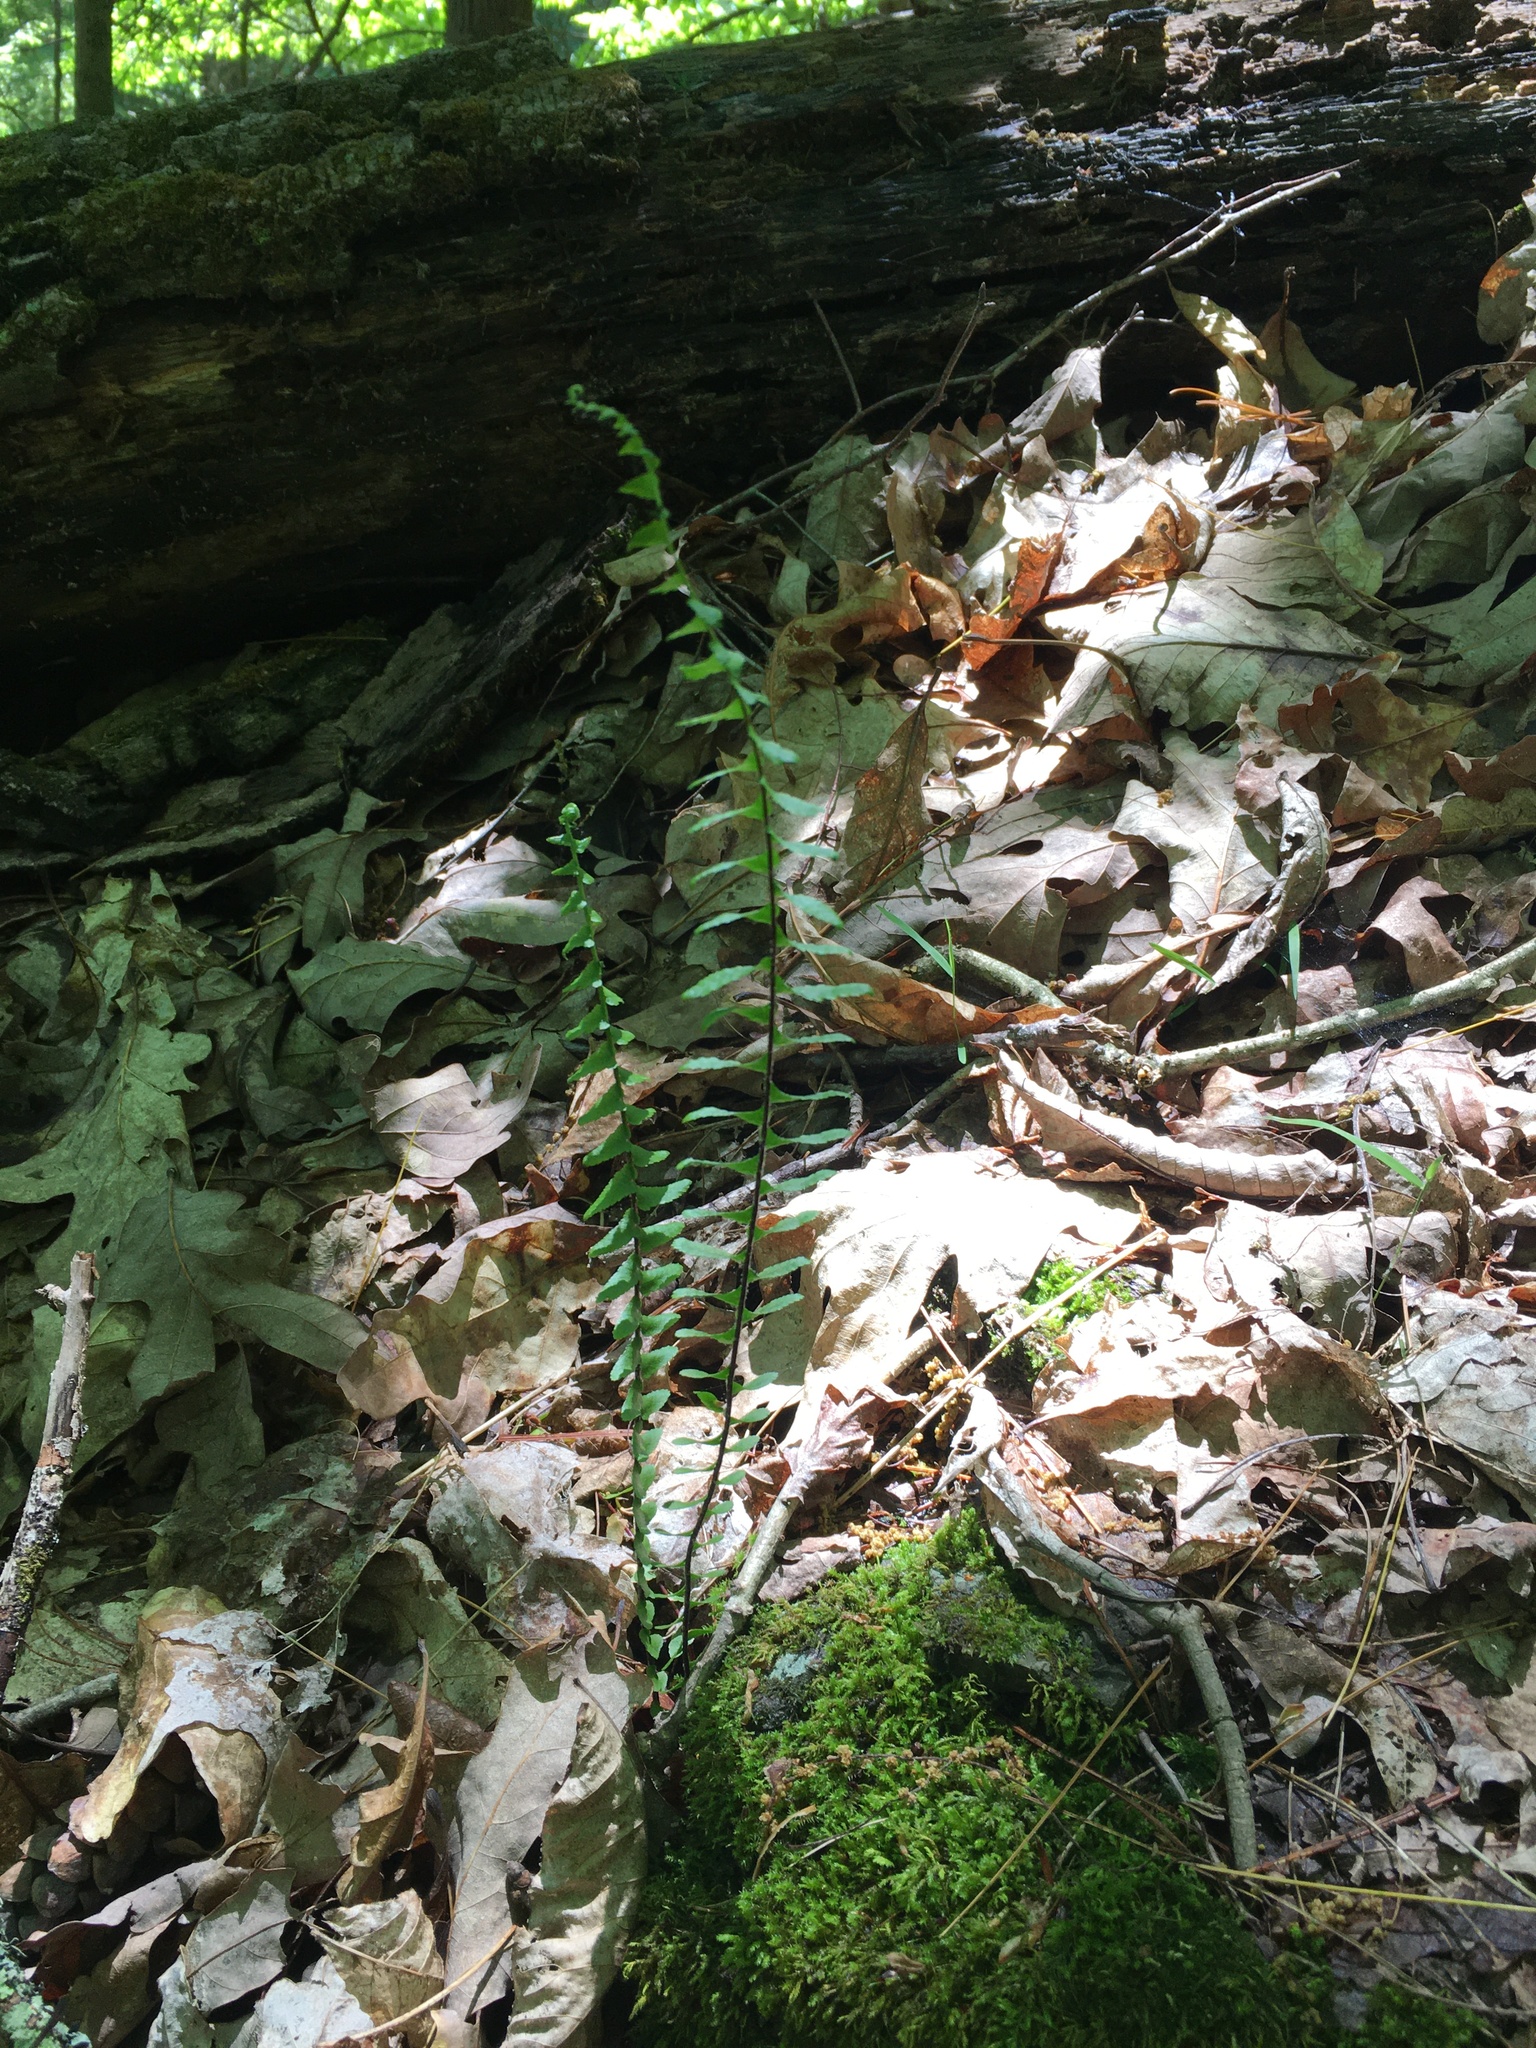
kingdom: Plantae
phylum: Tracheophyta
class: Polypodiopsida
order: Polypodiales
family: Aspleniaceae
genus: Asplenium
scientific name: Asplenium platyneuron
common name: Ebony spleenwort
